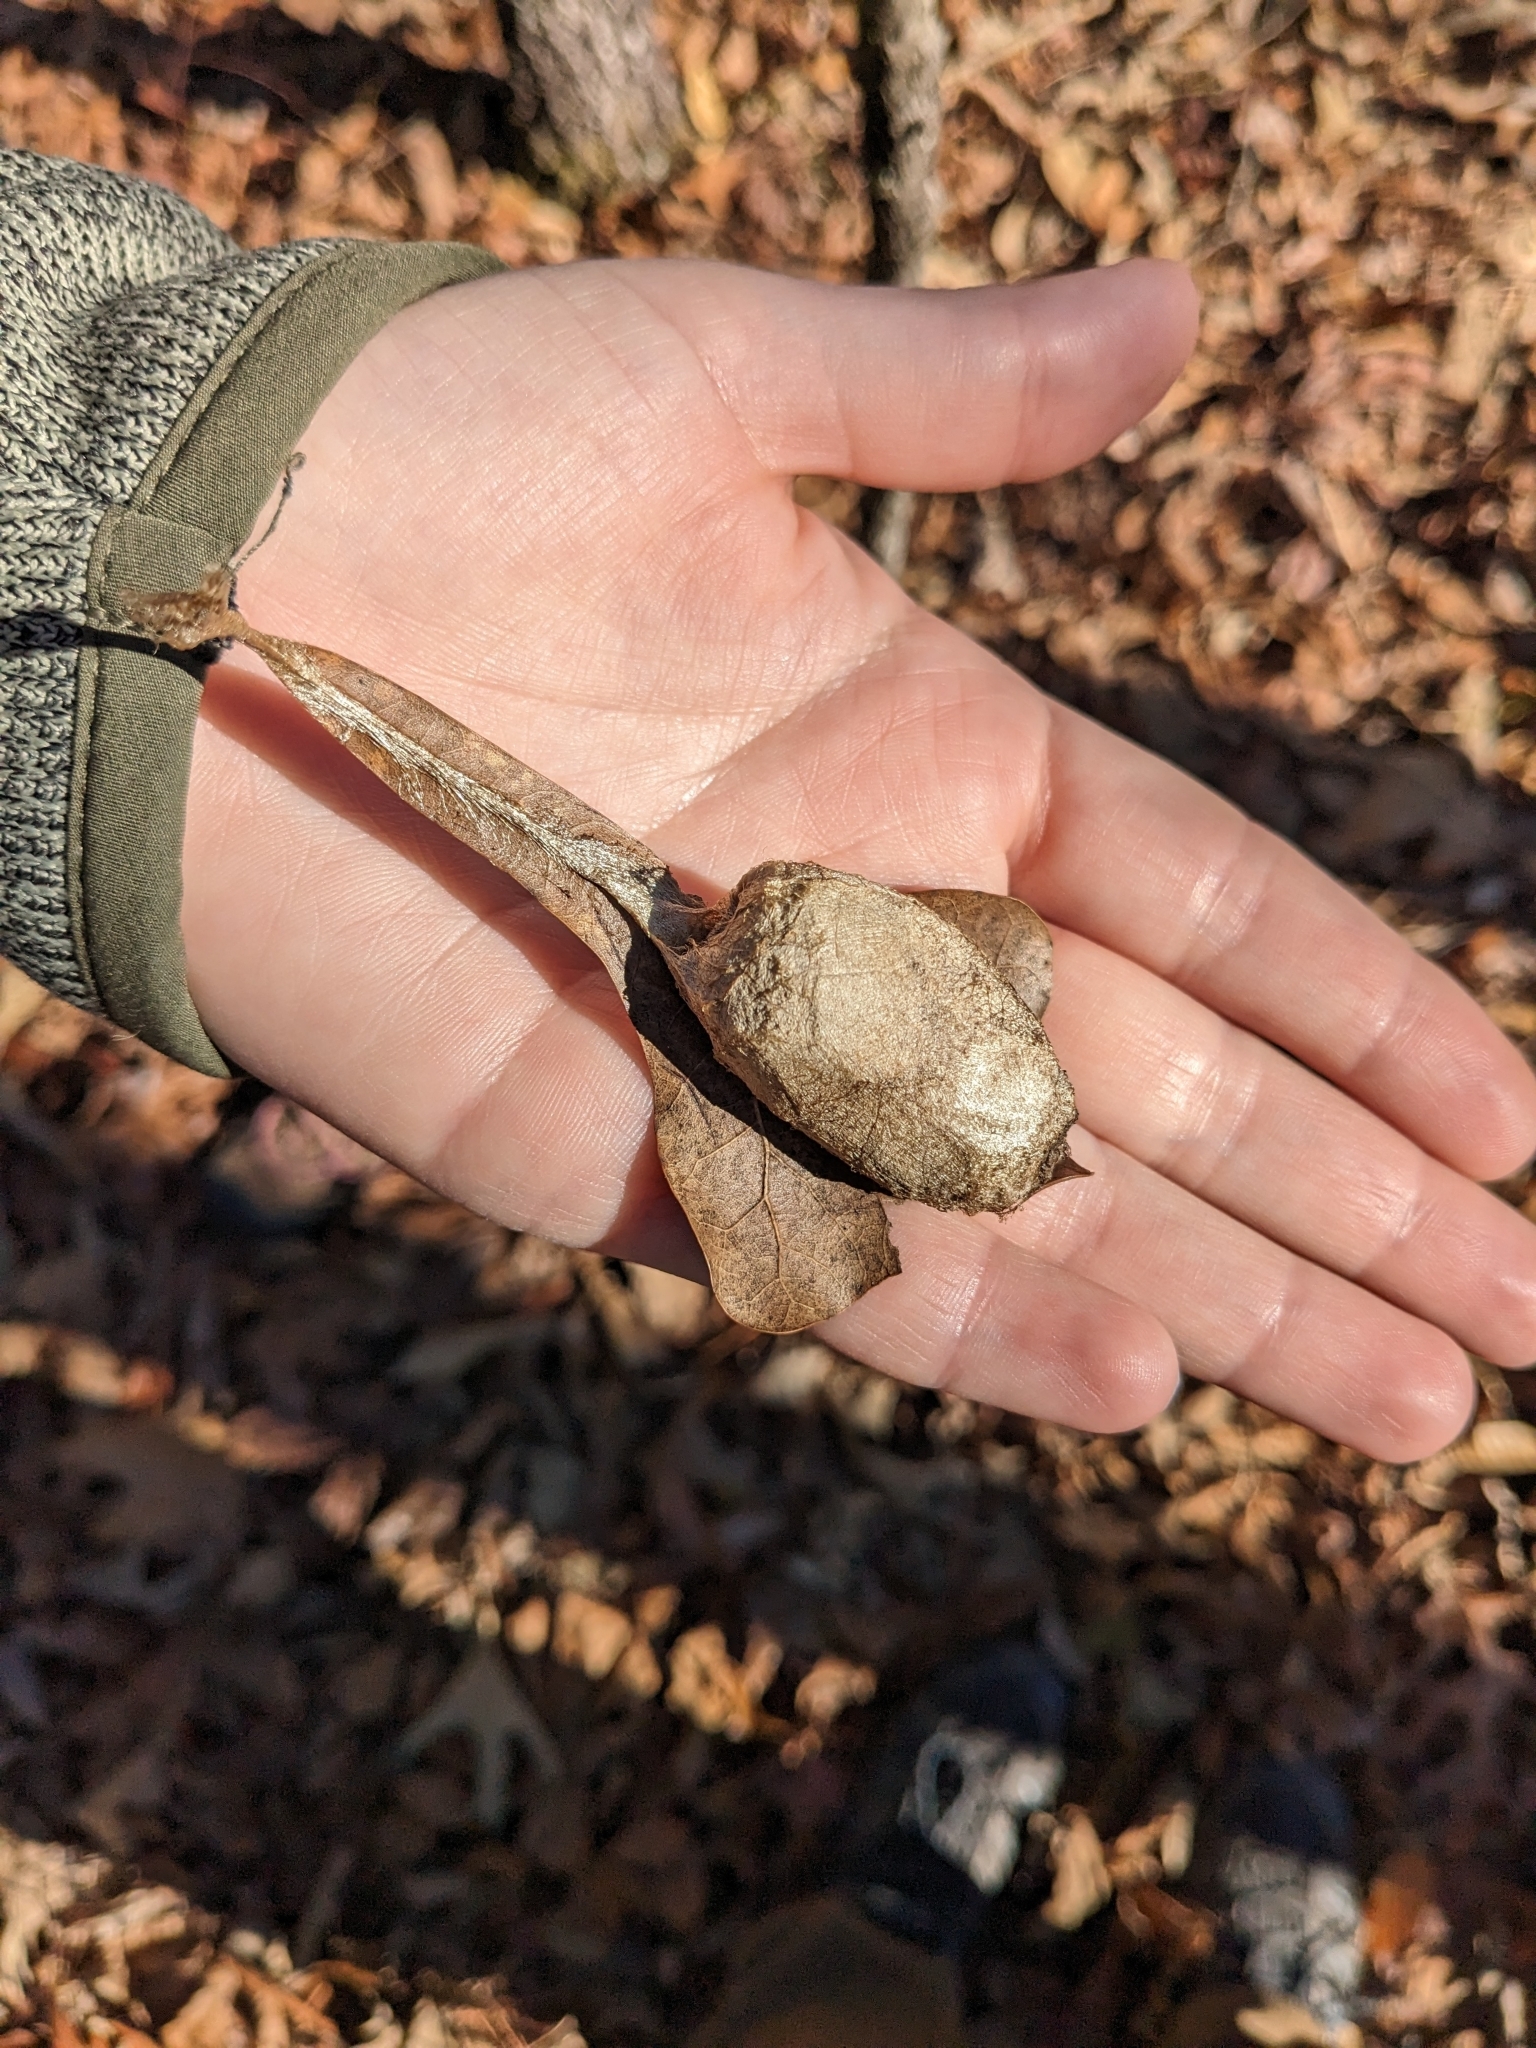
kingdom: Animalia
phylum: Arthropoda
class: Insecta
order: Lepidoptera
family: Saturniidae
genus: Antheraea
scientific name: Antheraea polyphemus
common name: Polyphemus moth
